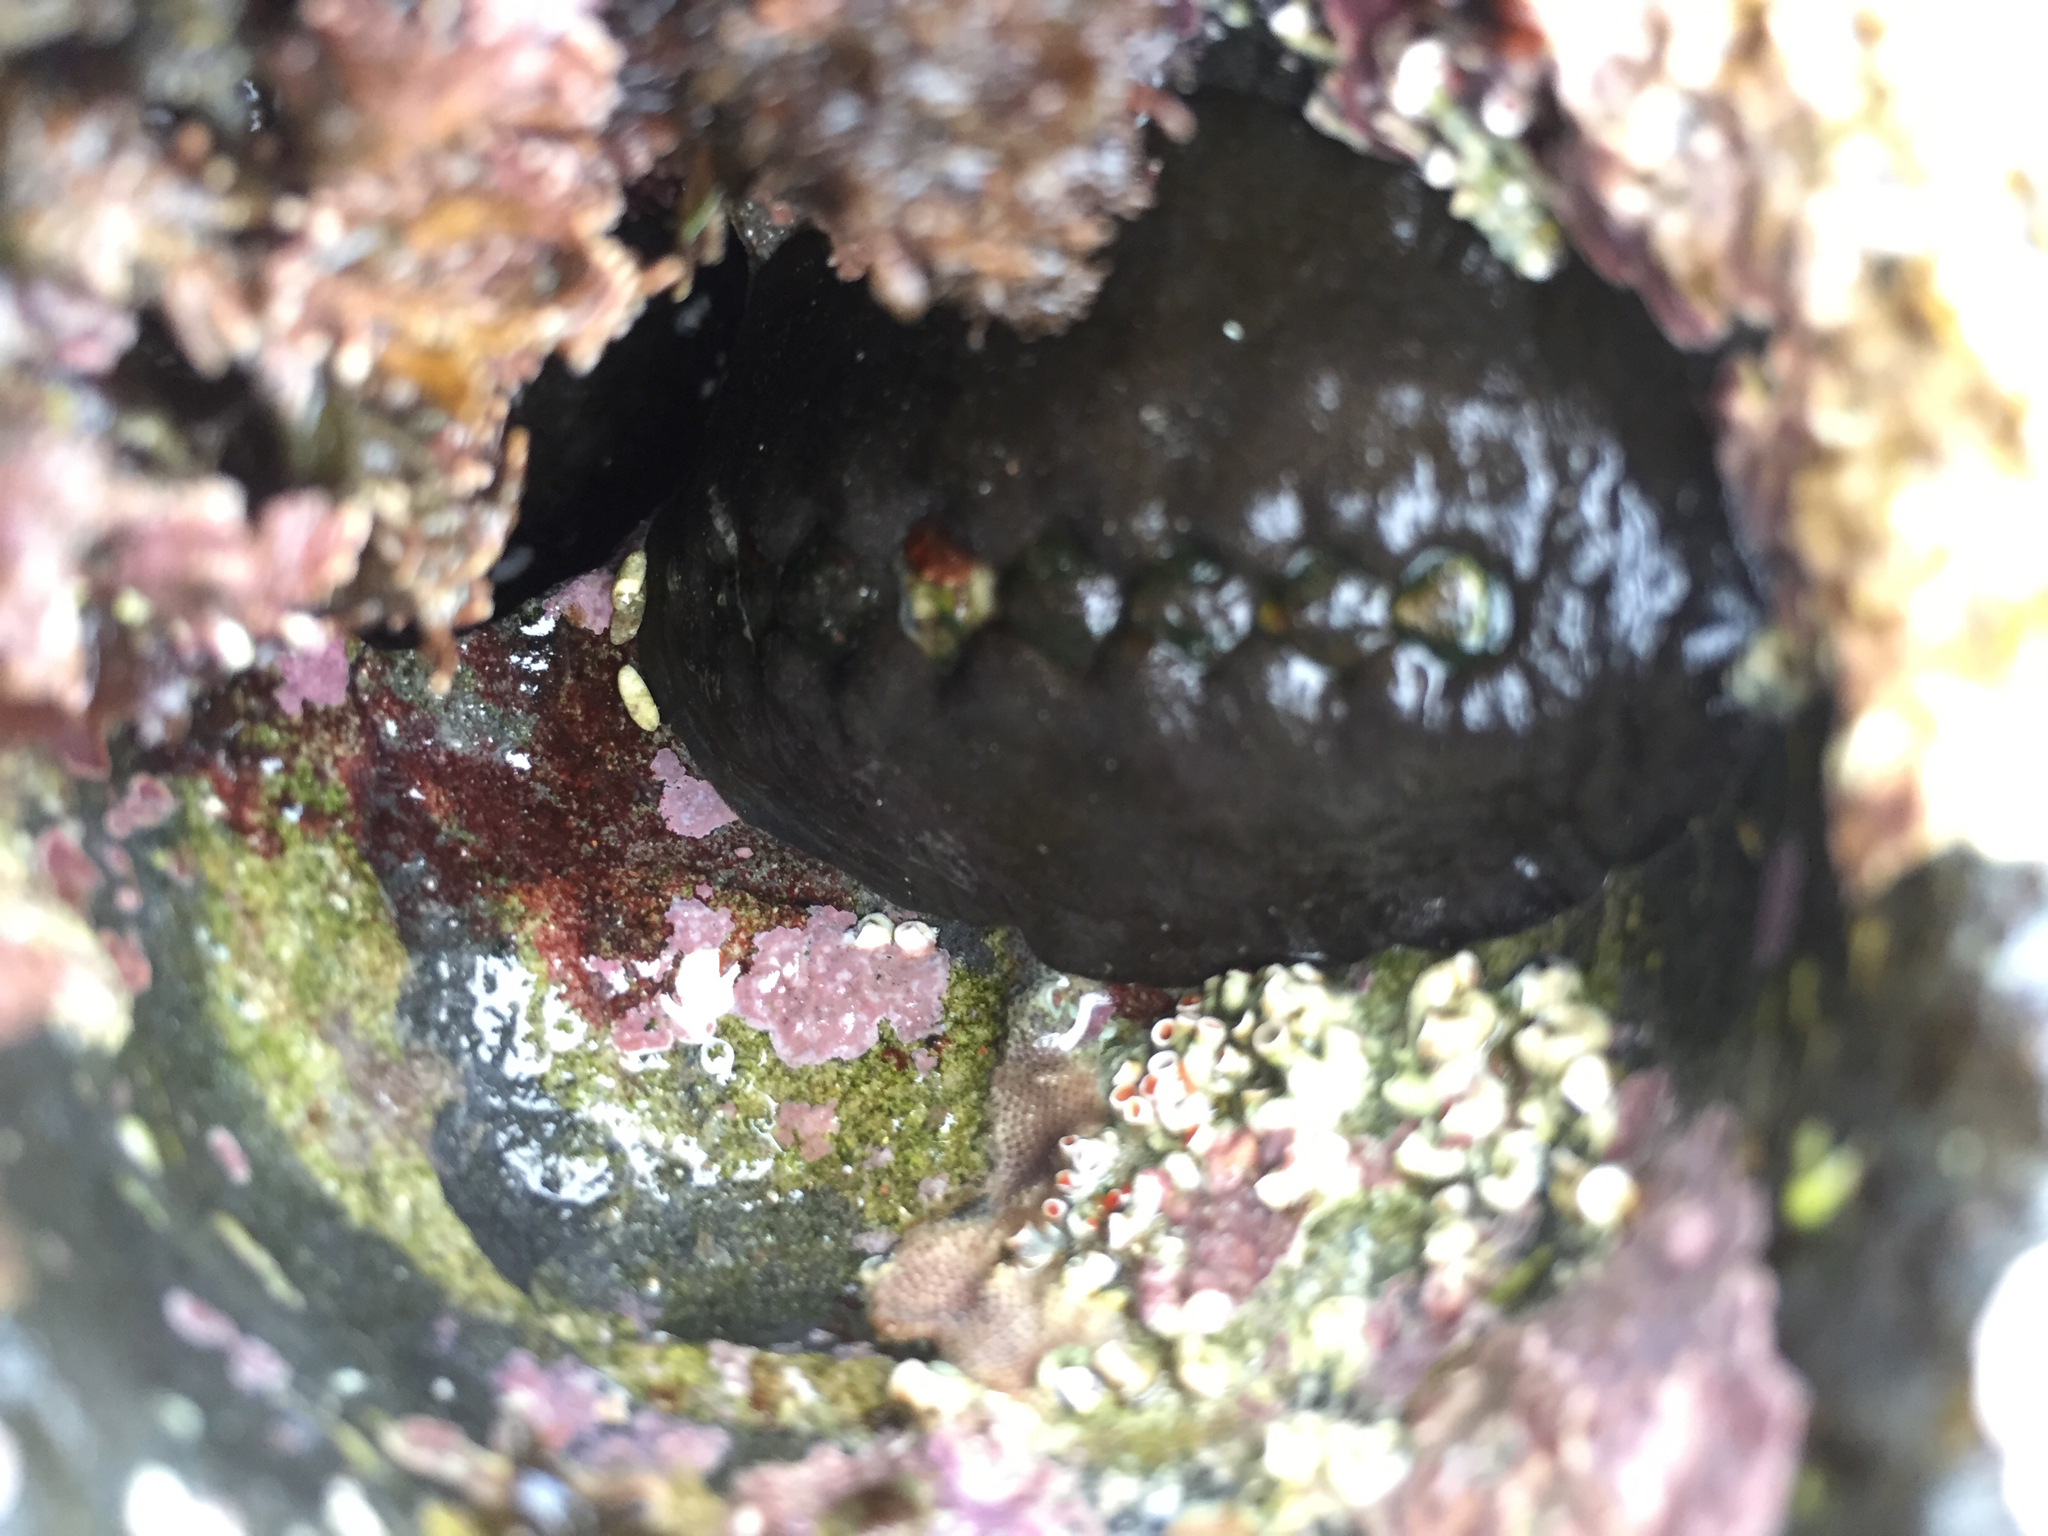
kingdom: Animalia
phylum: Mollusca
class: Polyplacophora
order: Chitonida
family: Mopaliidae
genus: Katharina
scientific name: Katharina tunicata
